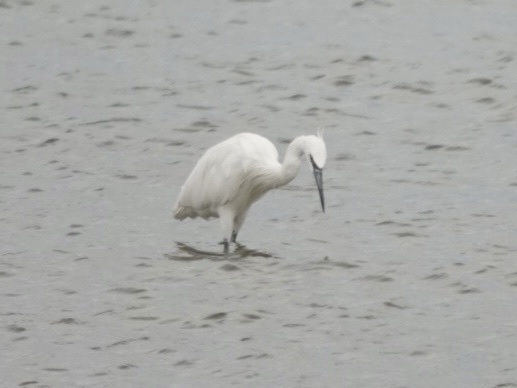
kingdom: Animalia
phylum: Chordata
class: Aves
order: Pelecaniformes
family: Ardeidae
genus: Egretta
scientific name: Egretta rufescens
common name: Reddish egret
